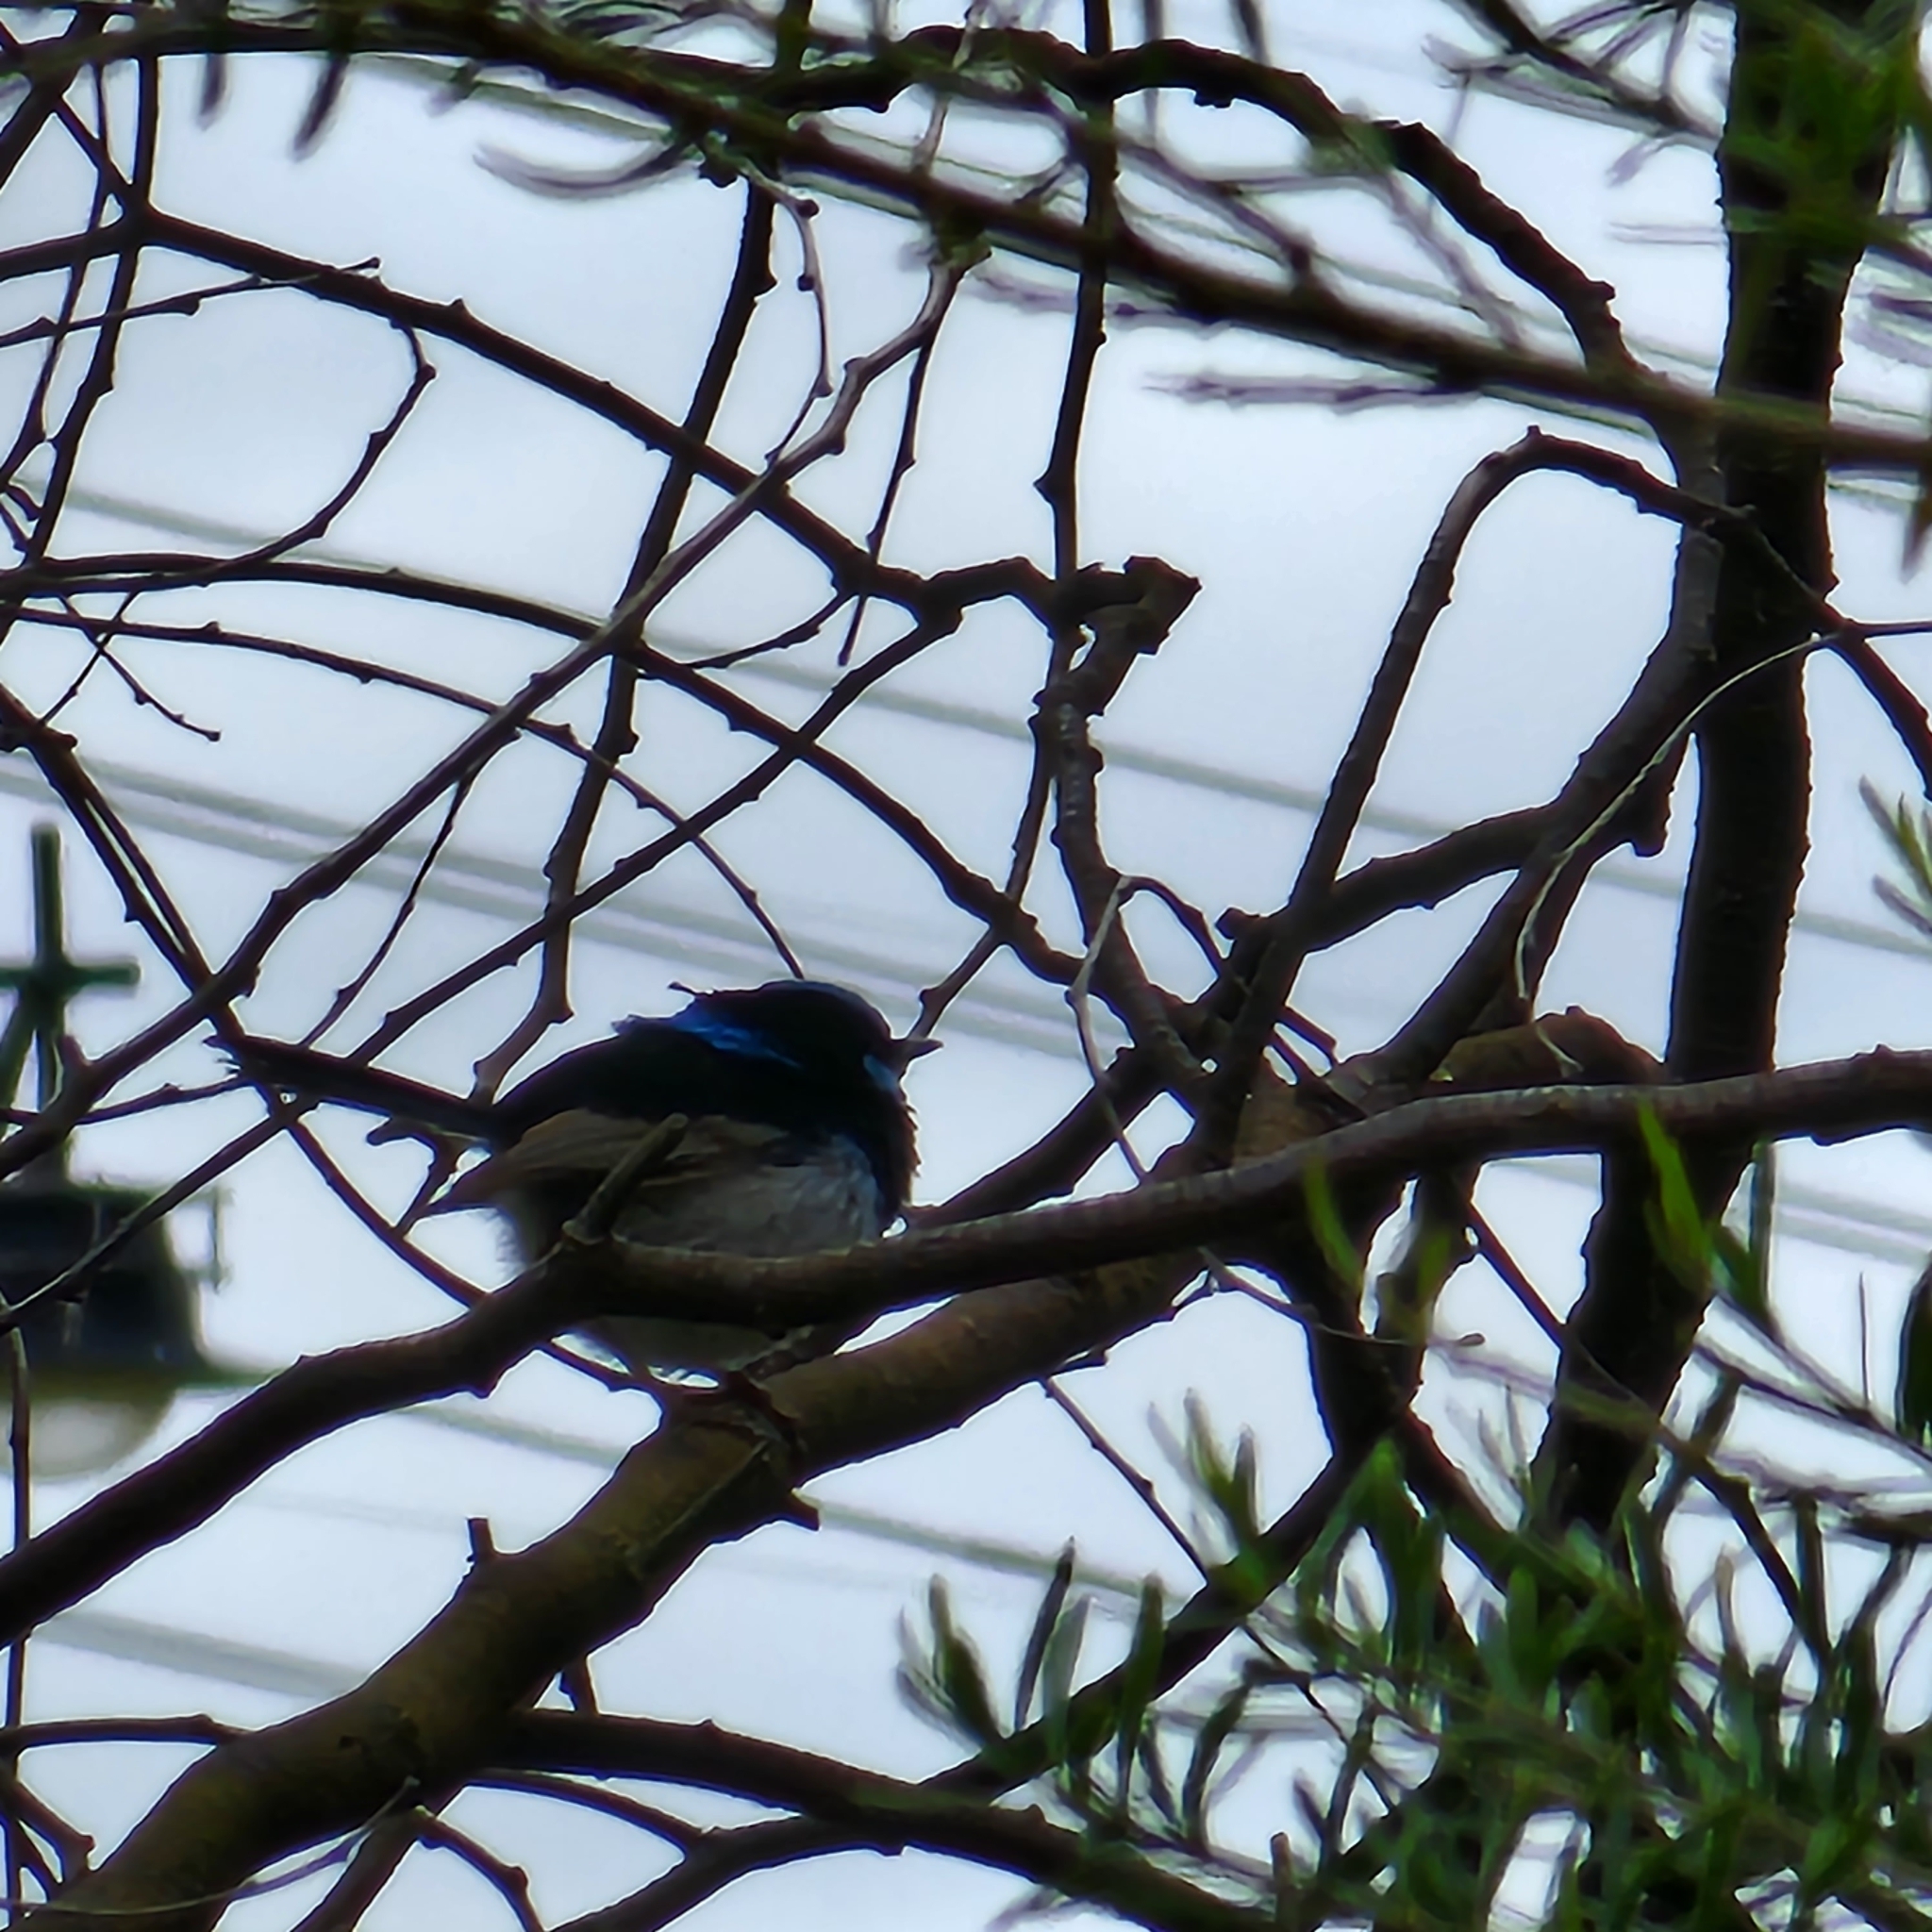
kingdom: Animalia
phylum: Chordata
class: Aves
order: Passeriformes
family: Maluridae
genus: Malurus
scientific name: Malurus cyaneus
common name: Superb fairywren
